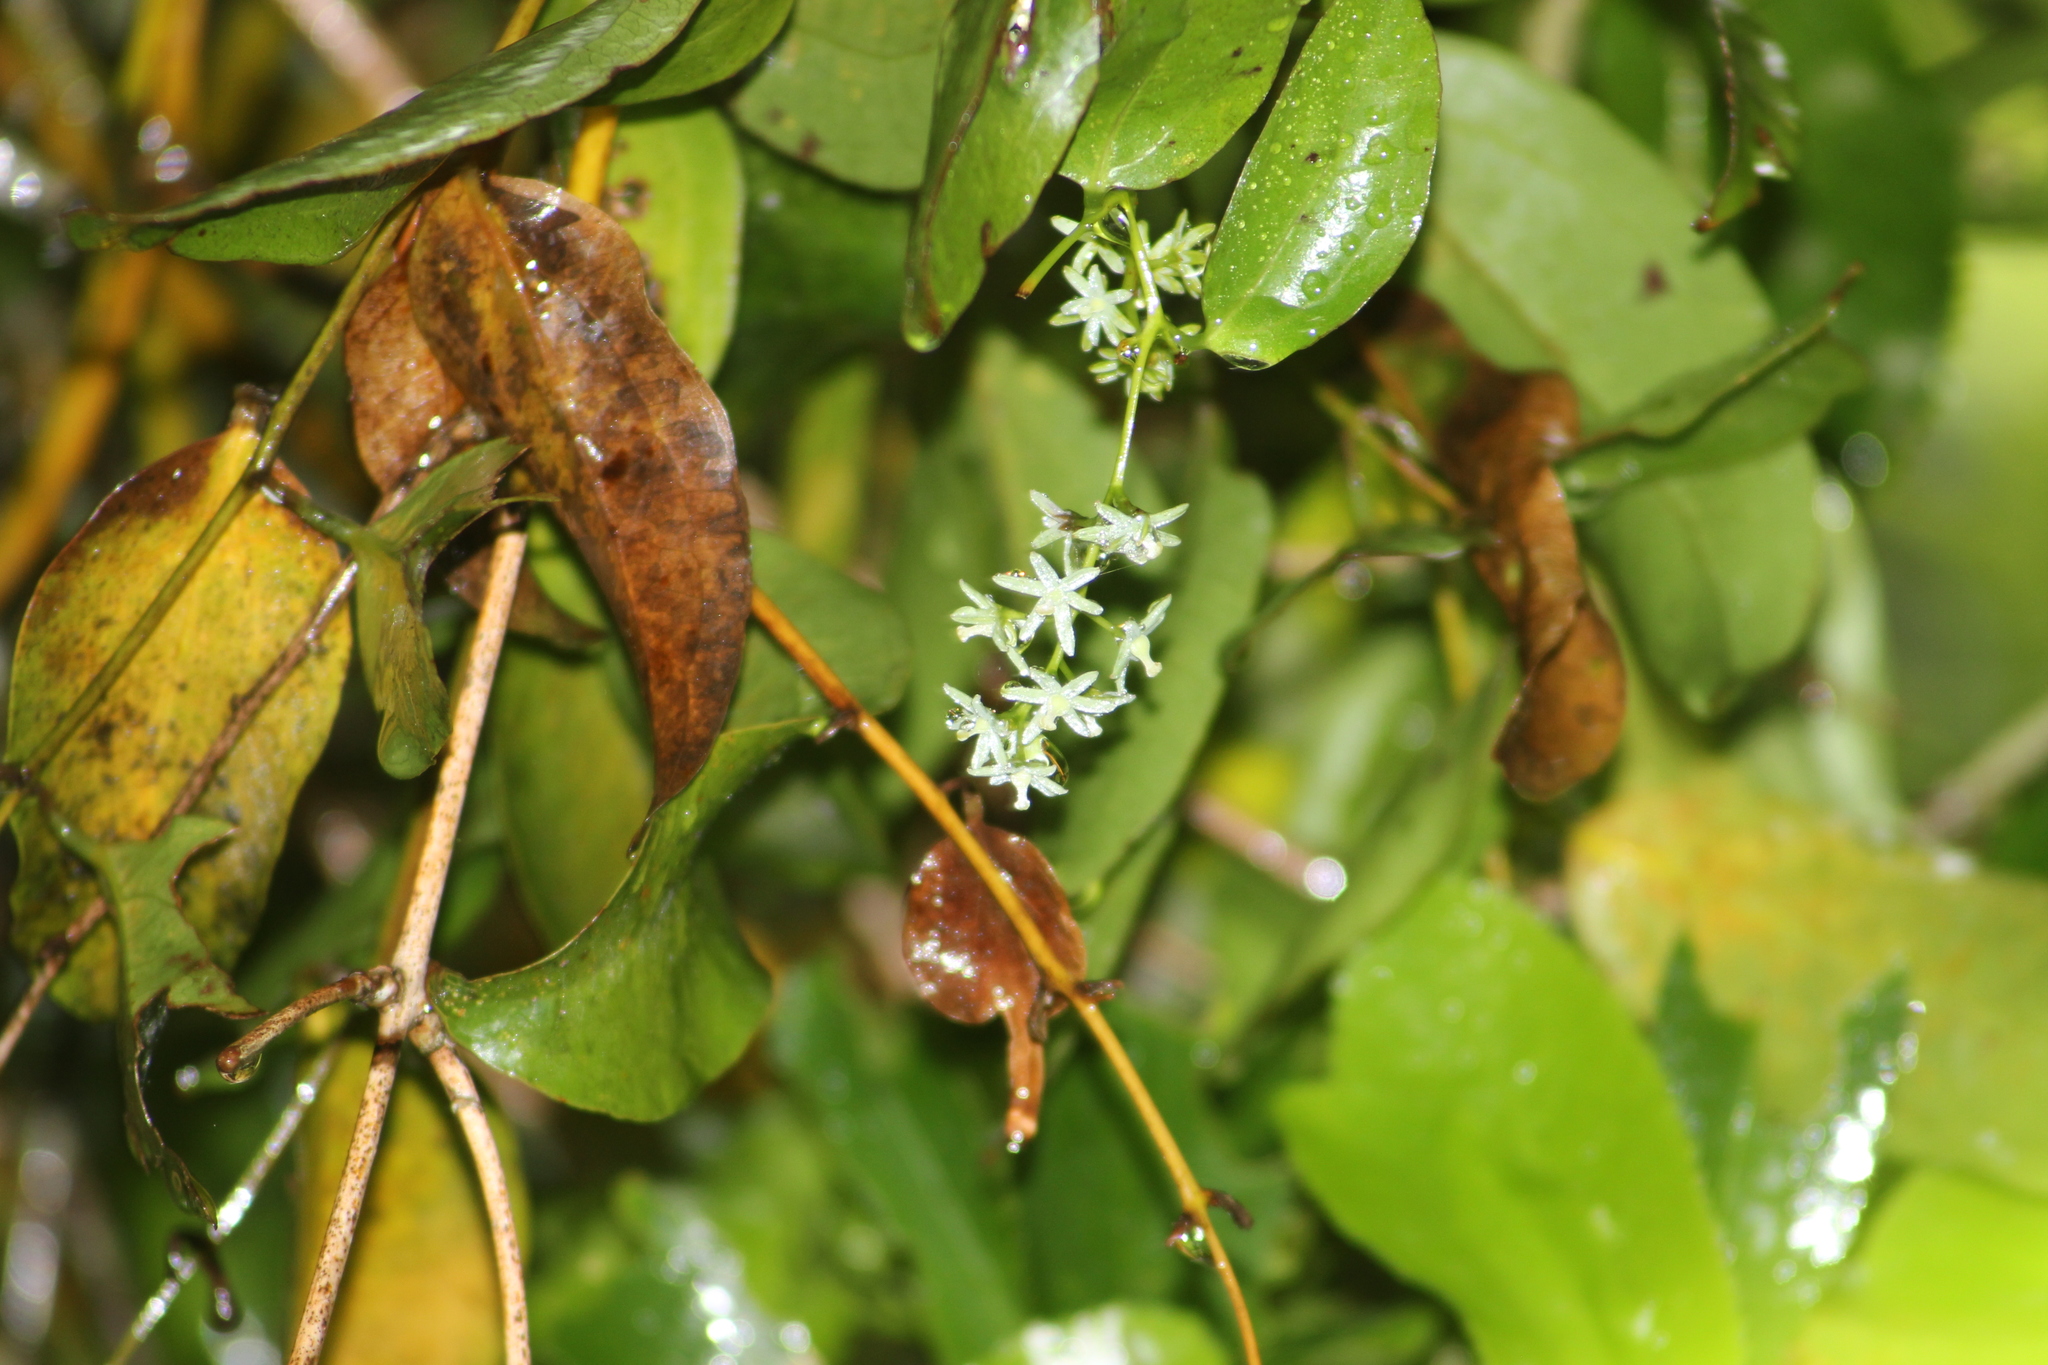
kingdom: Plantae
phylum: Tracheophyta
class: Liliopsida
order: Liliales
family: Ripogonaceae
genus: Ripogonum
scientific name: Ripogonum scandens
